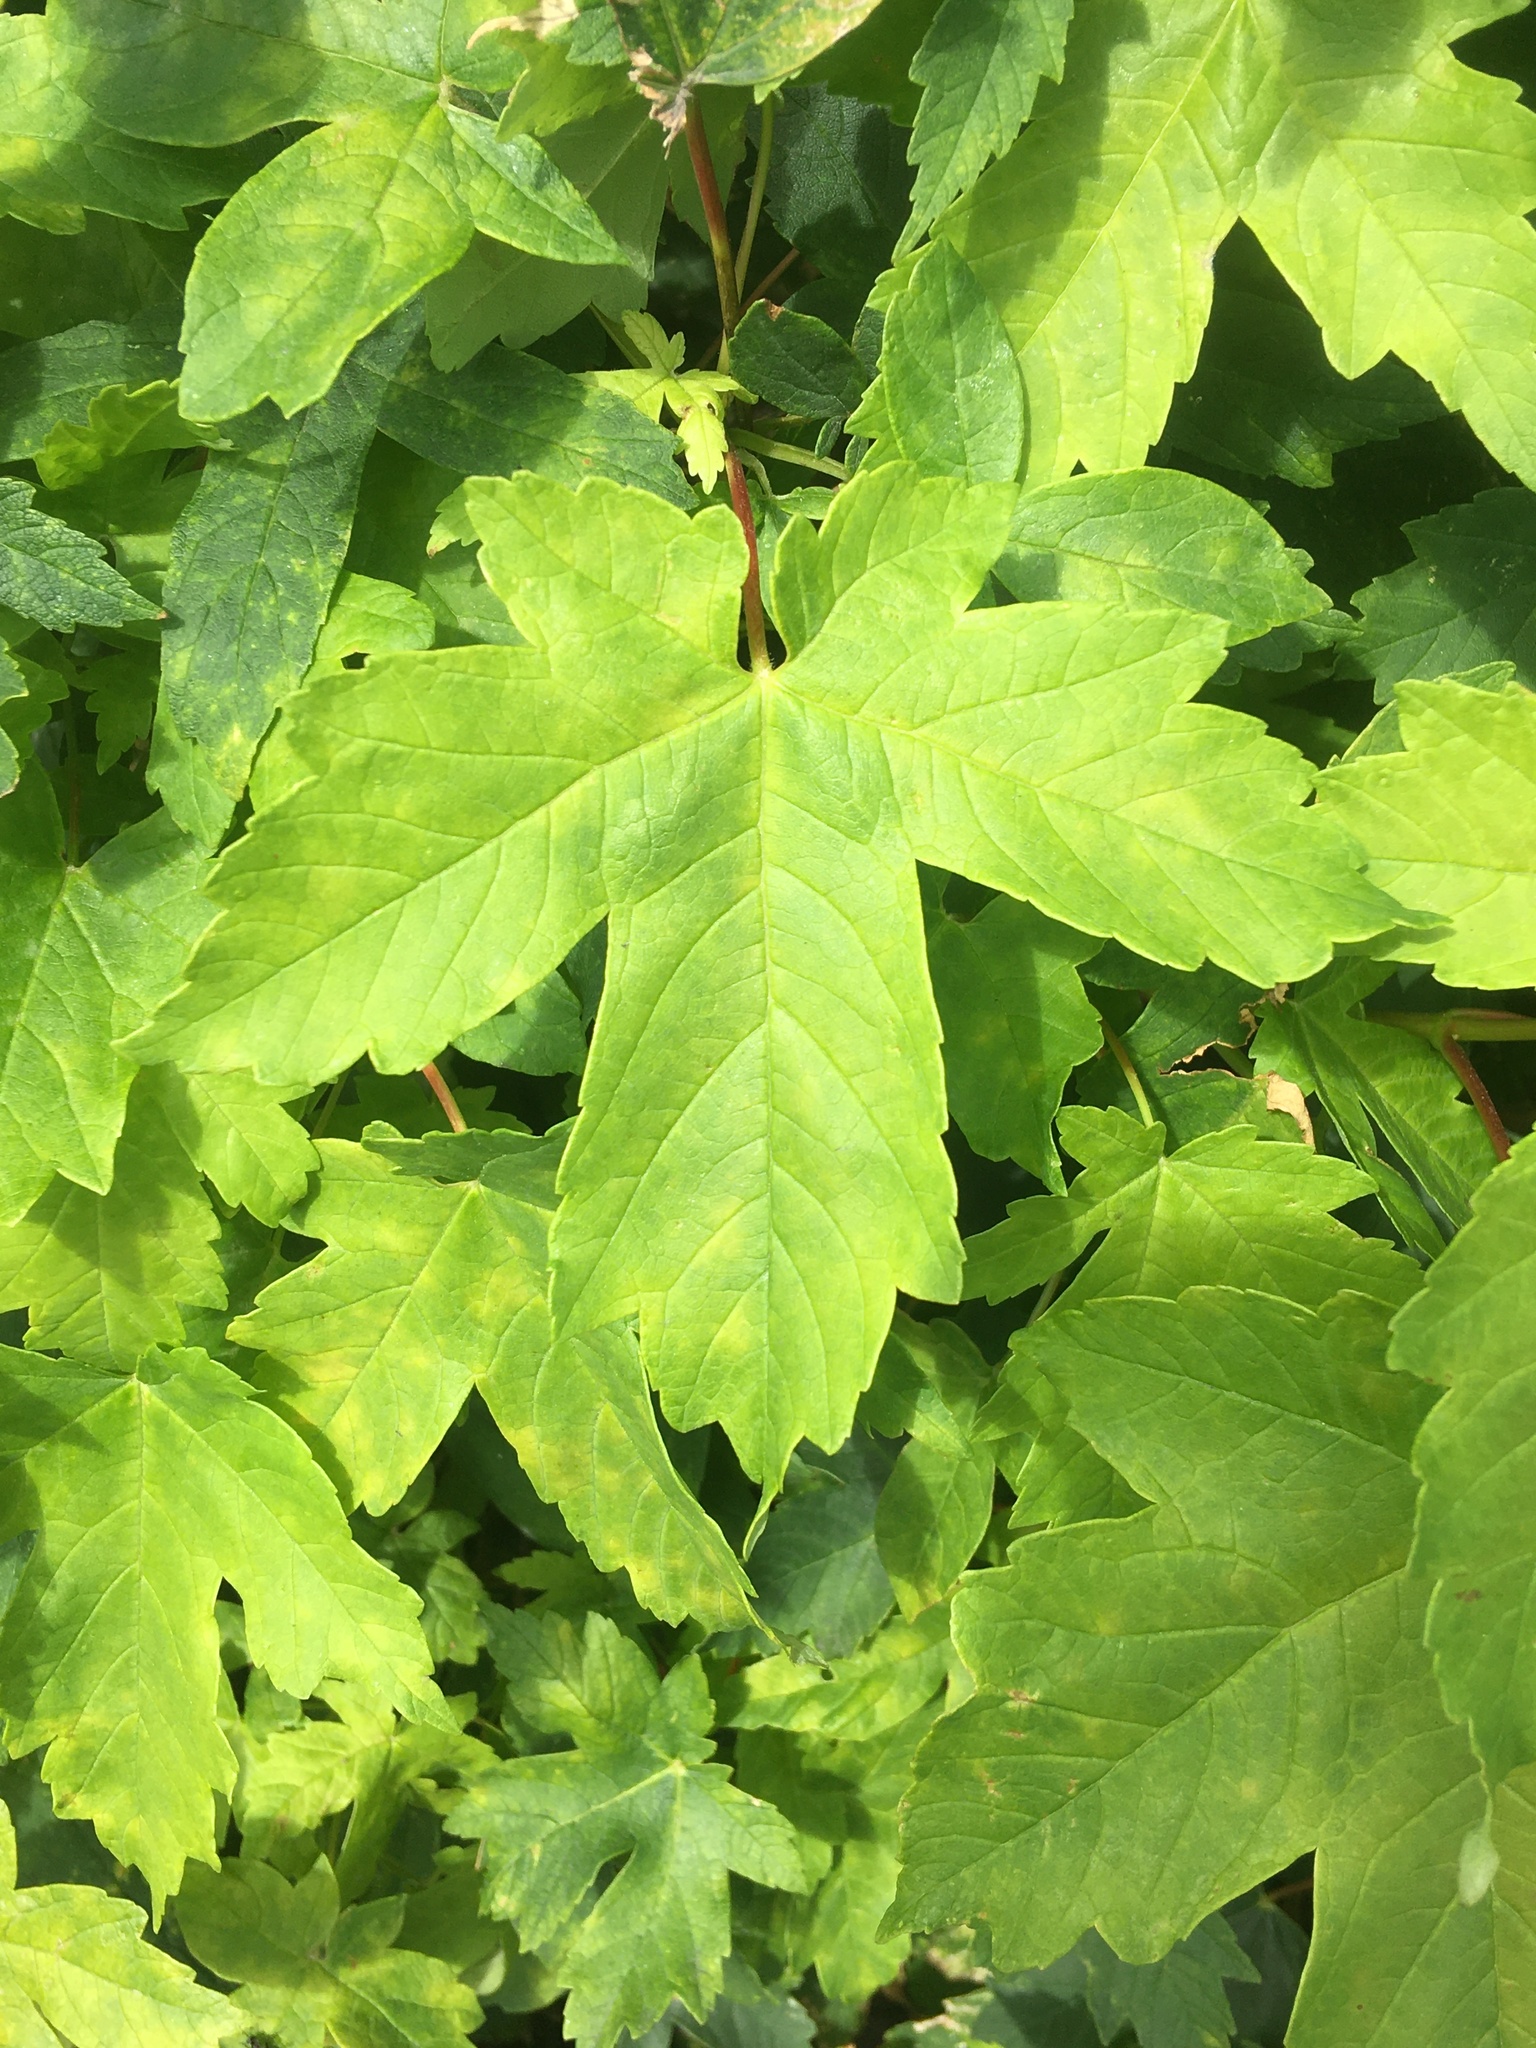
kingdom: Plantae
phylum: Tracheophyta
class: Magnoliopsida
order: Sapindales
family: Sapindaceae
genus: Acer
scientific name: Acer pseudoplatanus
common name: Sycamore
